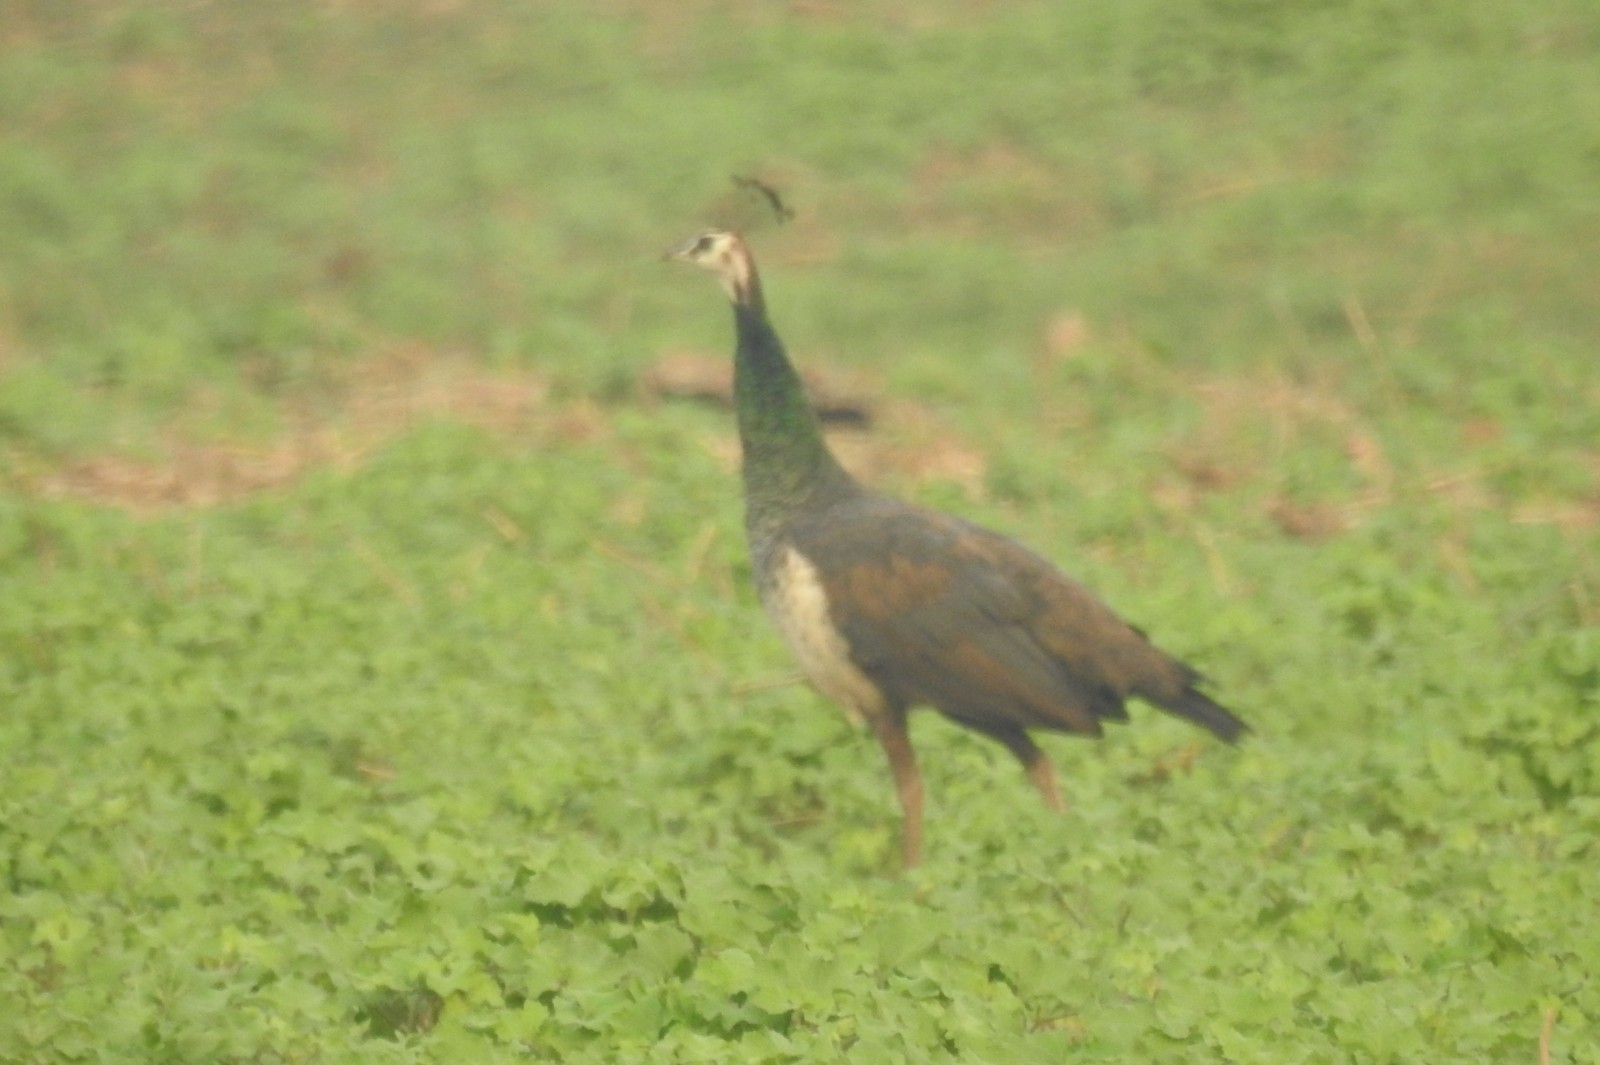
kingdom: Animalia
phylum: Chordata
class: Aves
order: Galliformes
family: Phasianidae
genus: Pavo
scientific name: Pavo cristatus
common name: Indian peafowl
